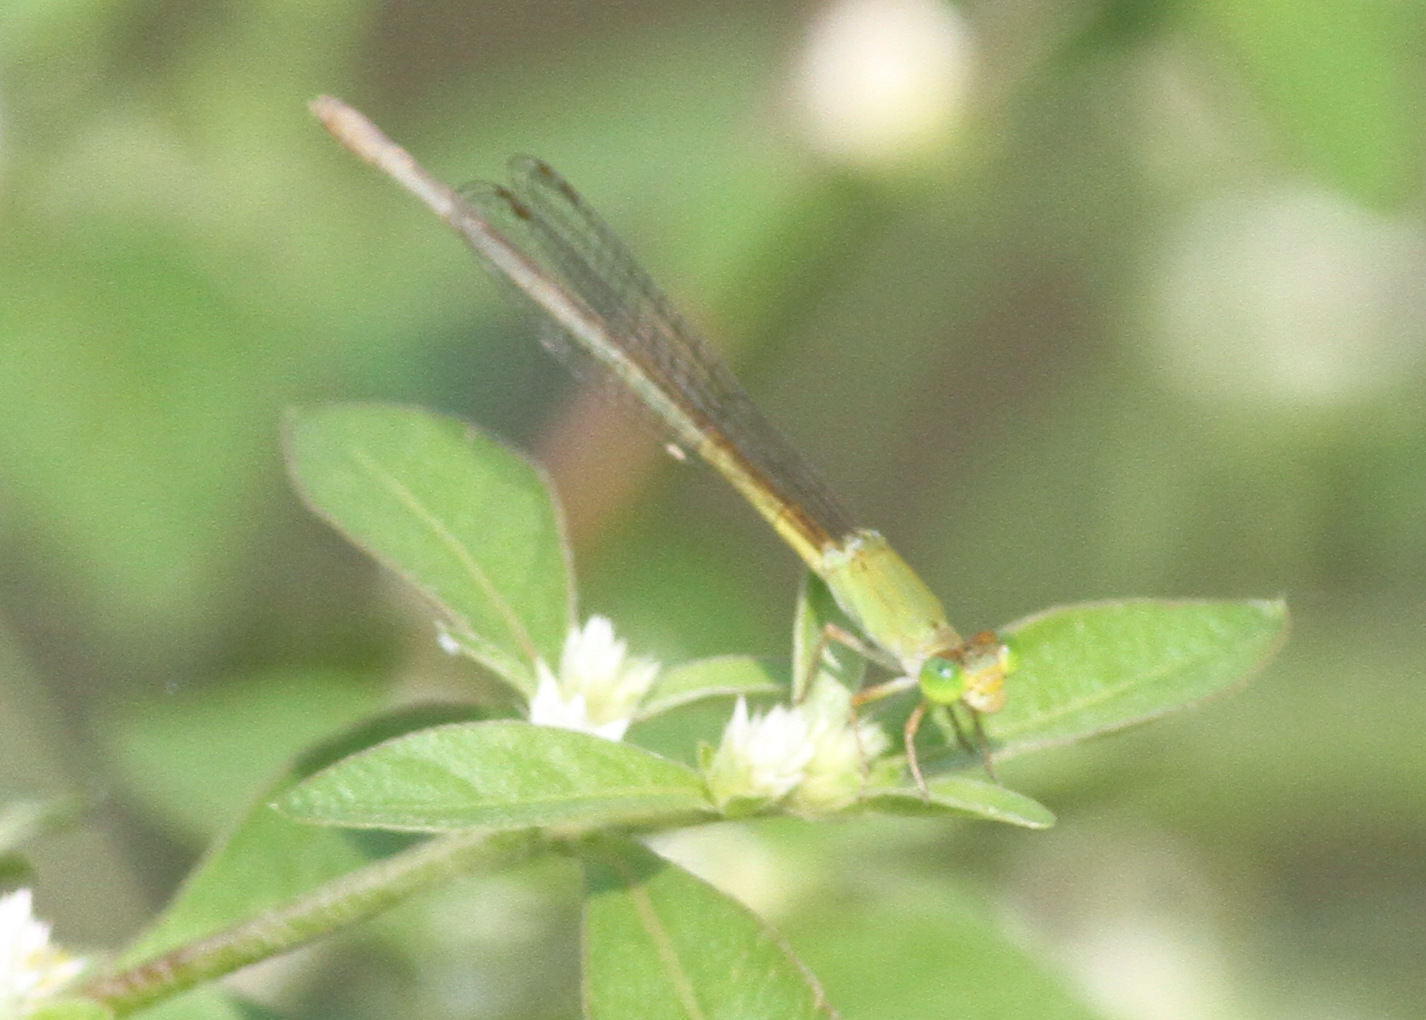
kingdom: Animalia
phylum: Arthropoda
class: Insecta
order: Odonata
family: Coenagrionidae
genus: Ceriagrion
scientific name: Ceriagrion coromandelianum
